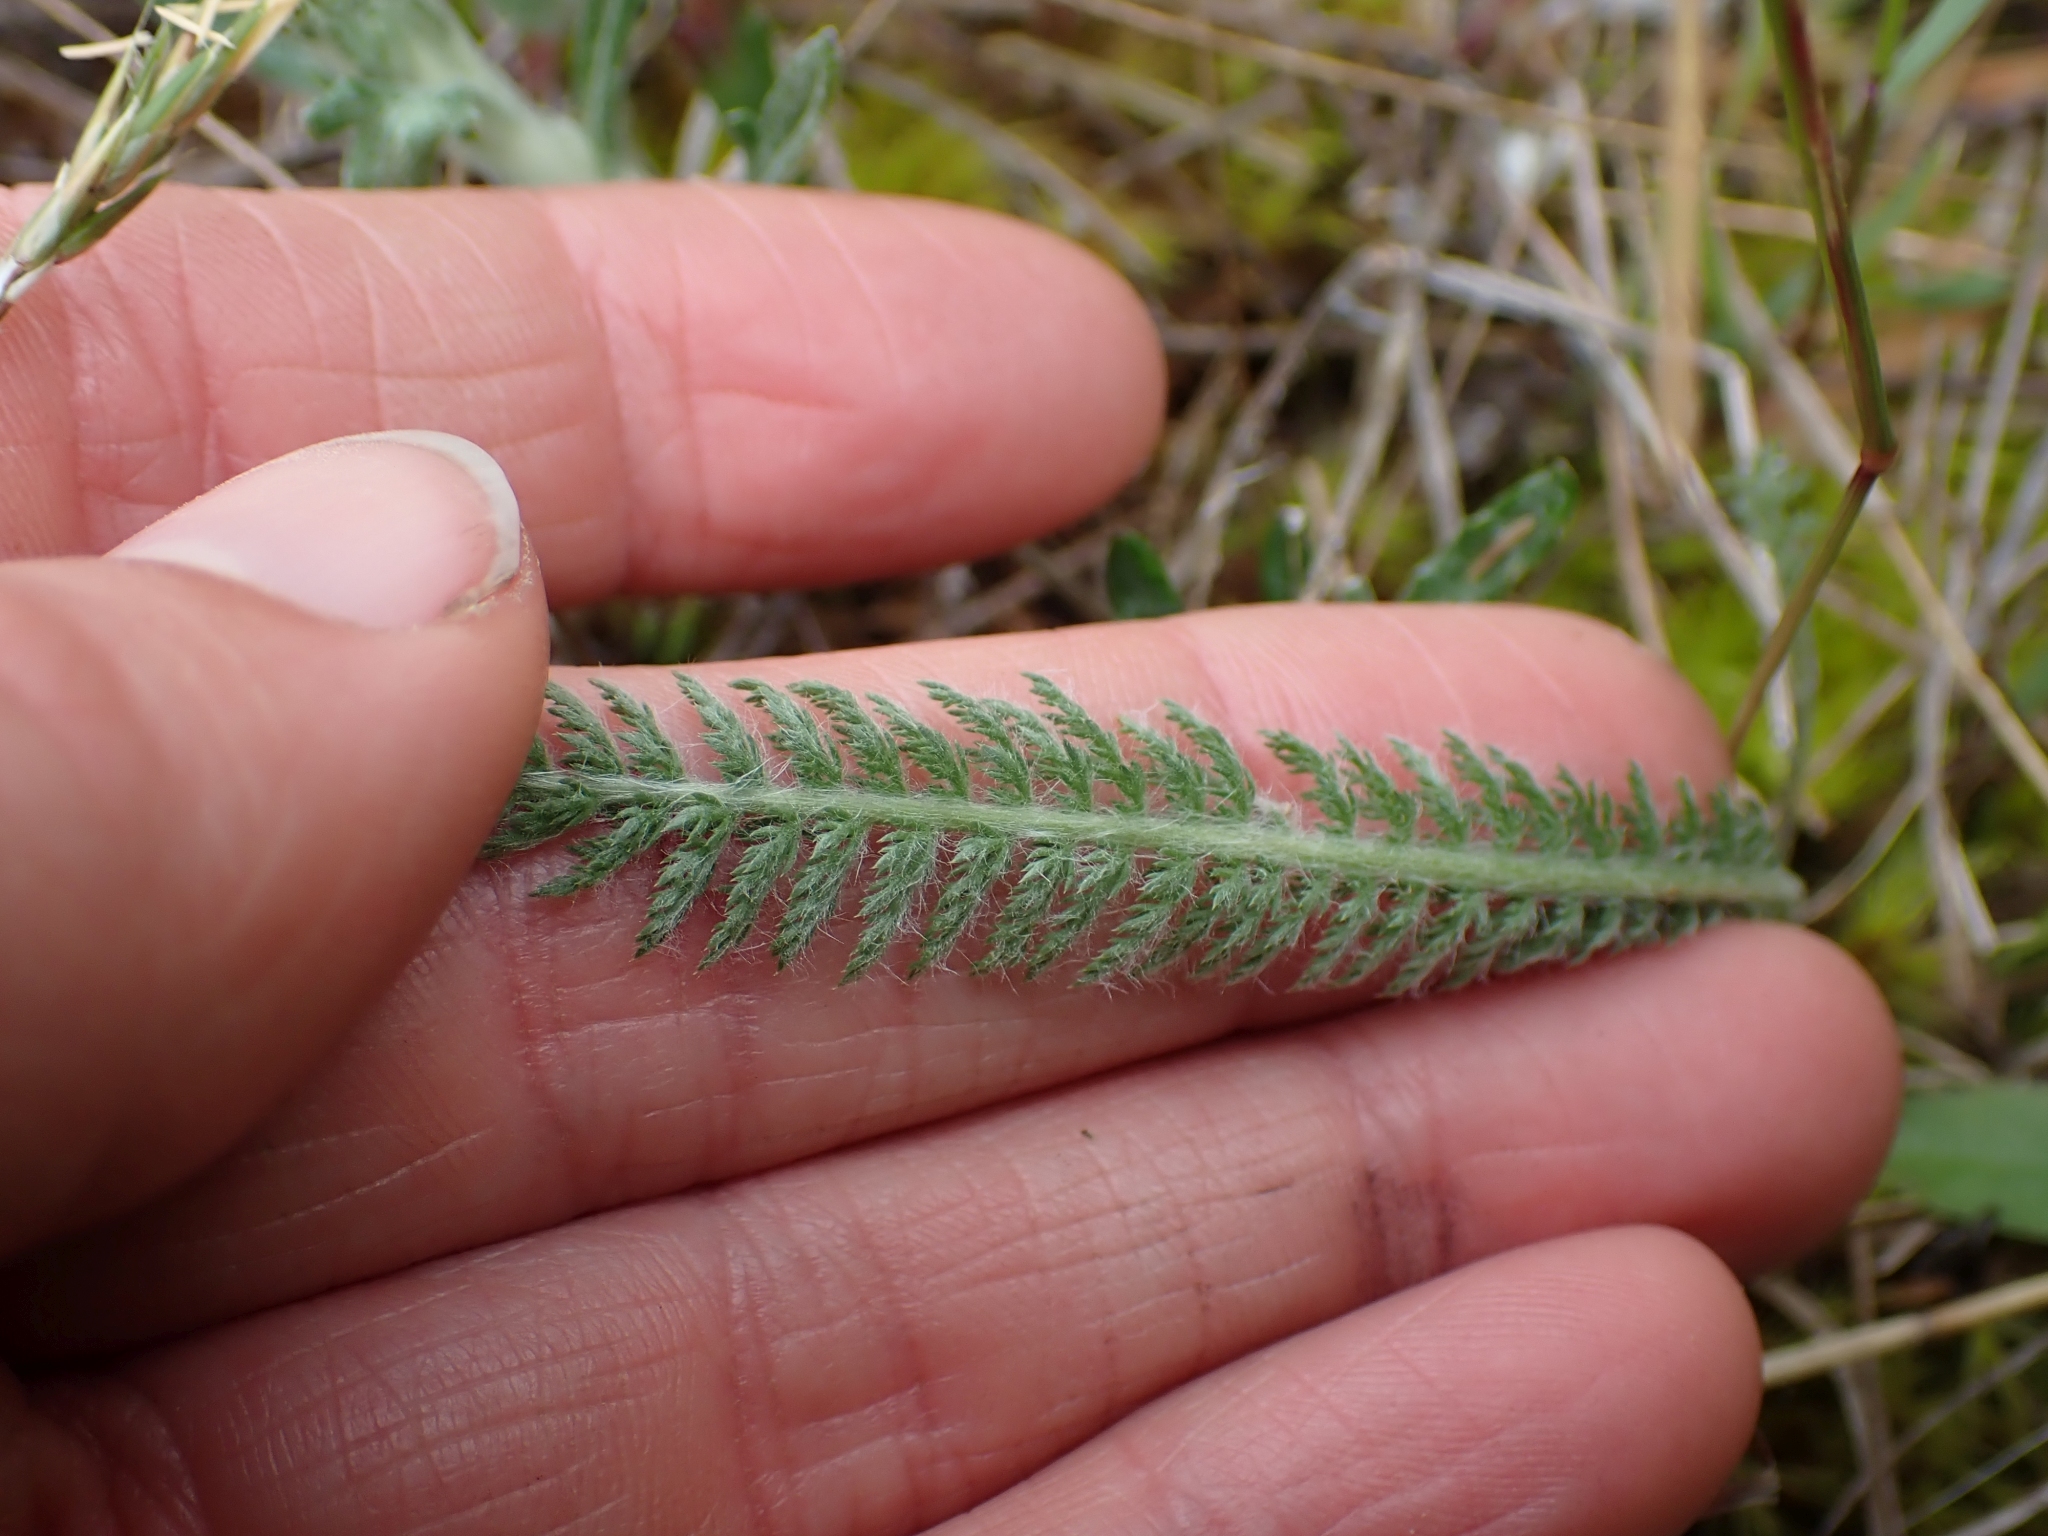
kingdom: Plantae
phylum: Tracheophyta
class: Magnoliopsida
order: Asterales
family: Asteraceae
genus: Achillea
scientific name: Achillea millefolium
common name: Yarrow
